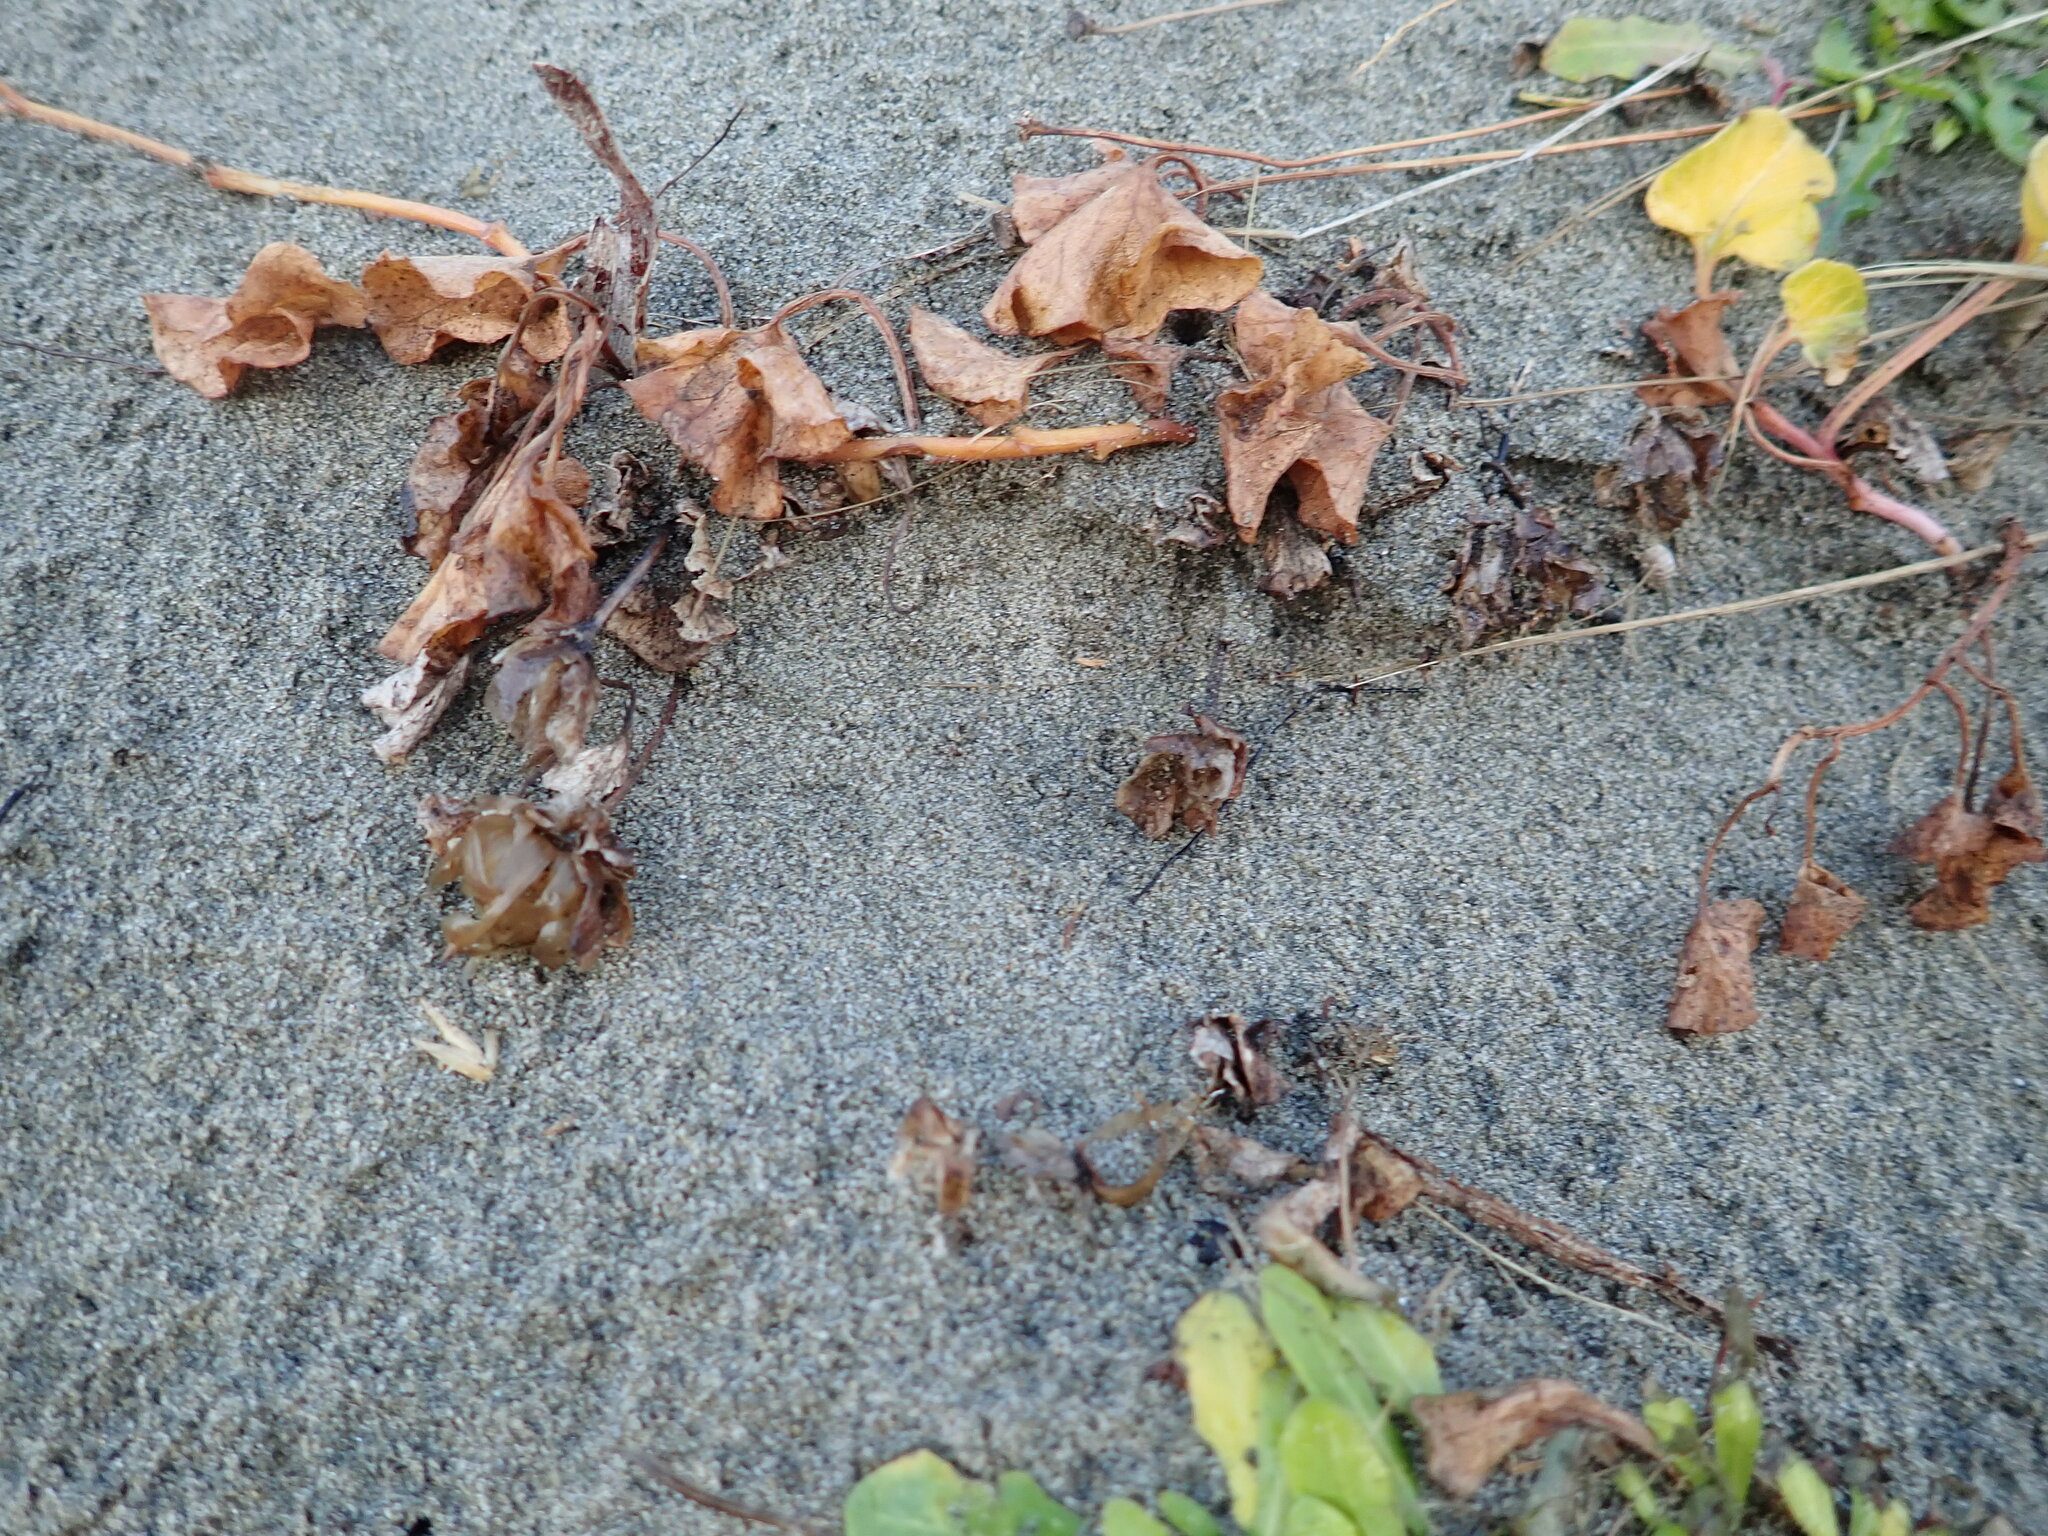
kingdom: Plantae
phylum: Tracheophyta
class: Magnoliopsida
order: Solanales
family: Convolvulaceae
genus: Calystegia
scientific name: Calystegia soldanella
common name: Sea bindweed
